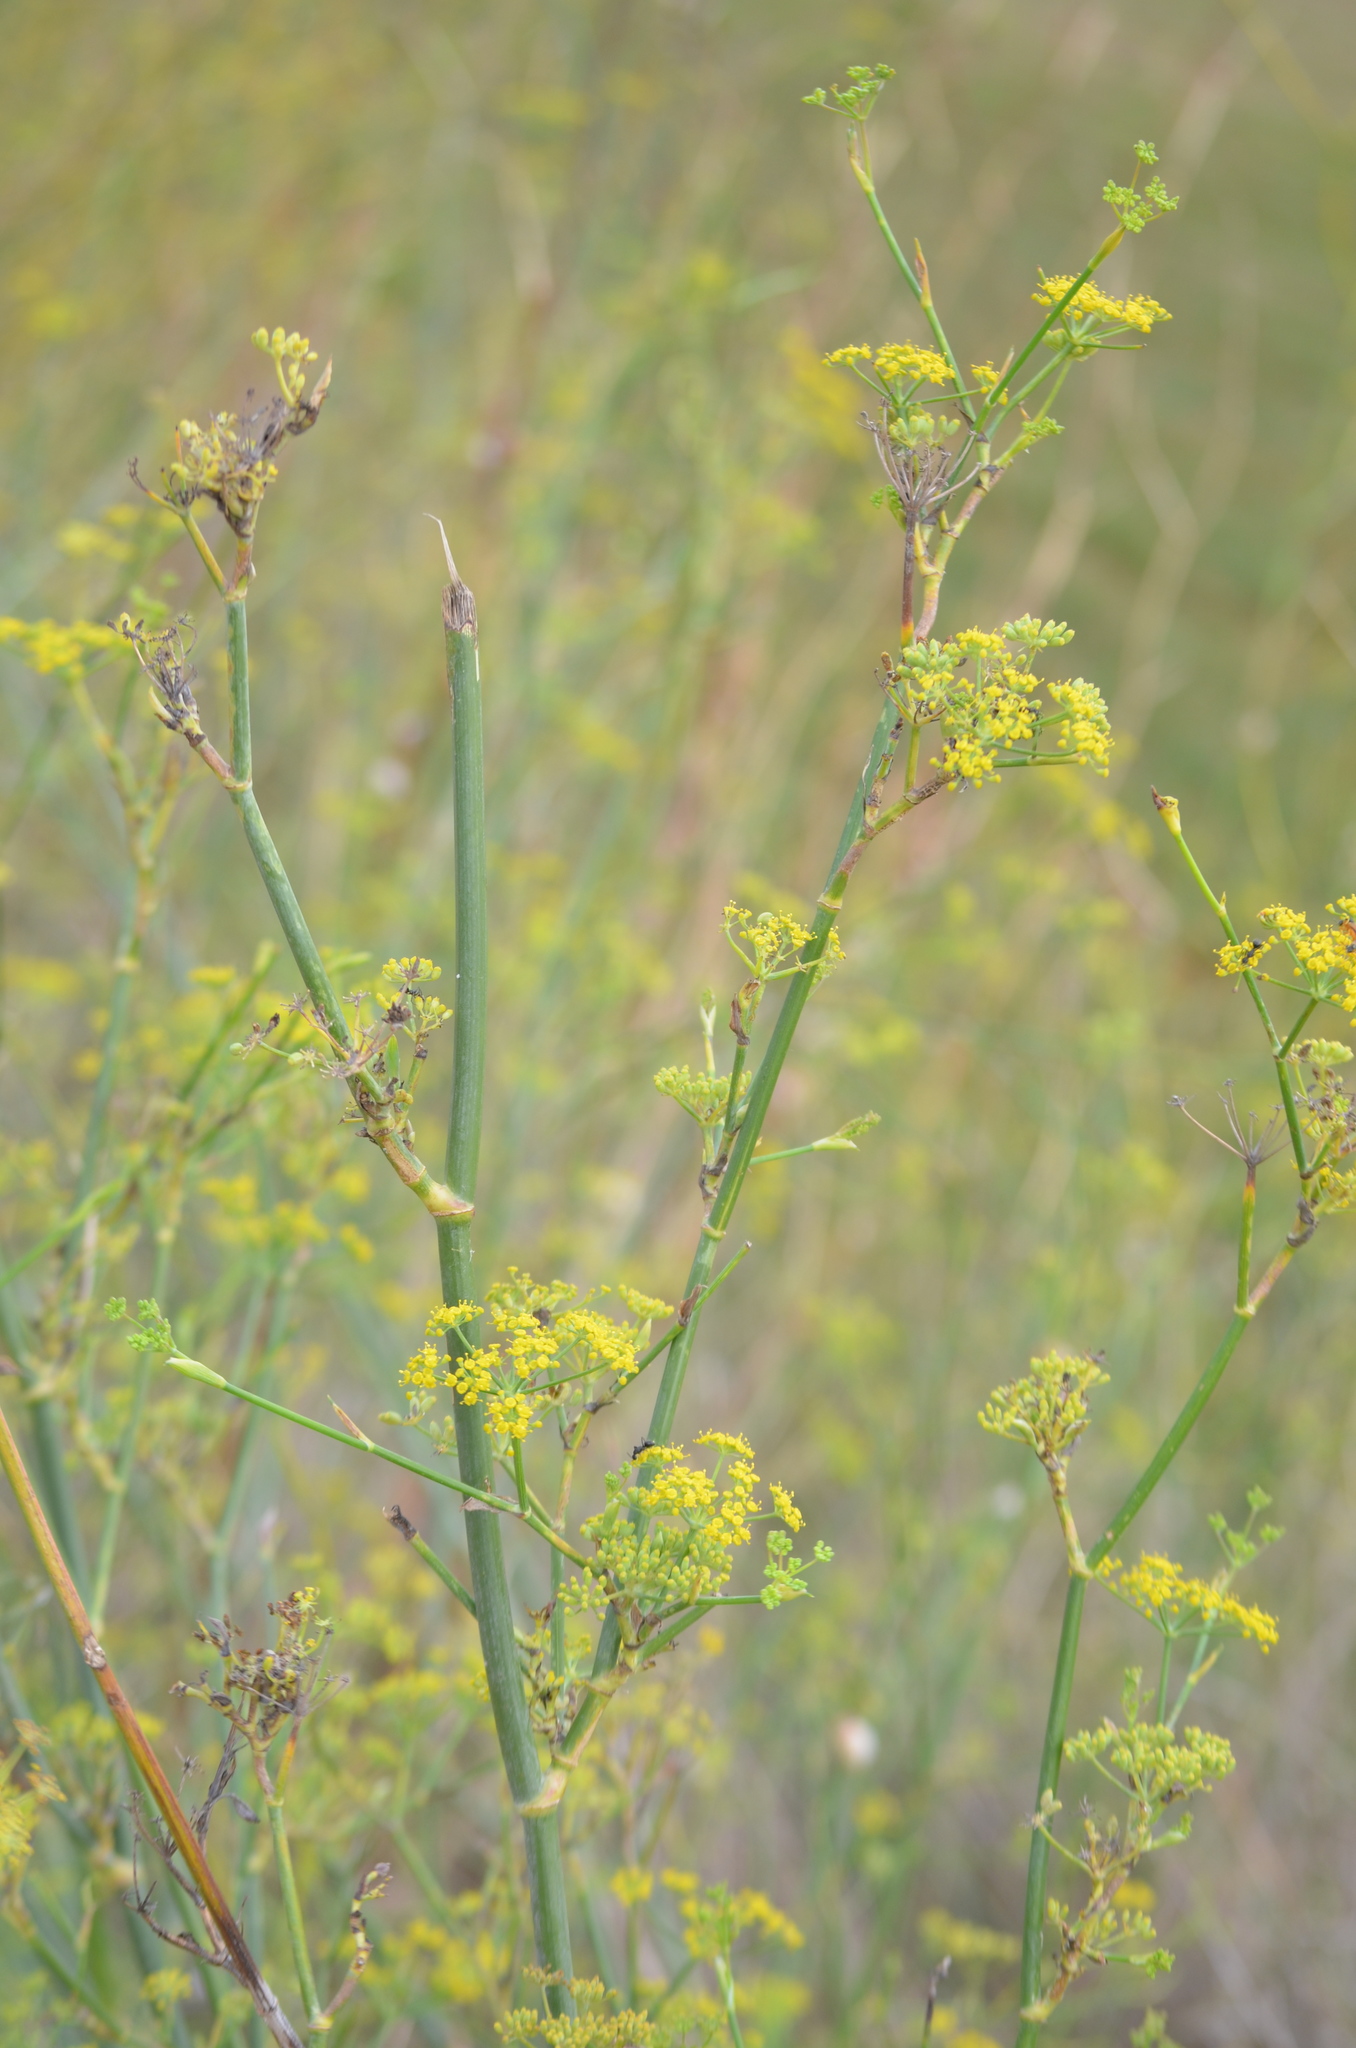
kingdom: Plantae
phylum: Tracheophyta
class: Magnoliopsida
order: Apiales
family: Apiaceae
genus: Foeniculum
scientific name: Foeniculum vulgare
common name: Fennel
